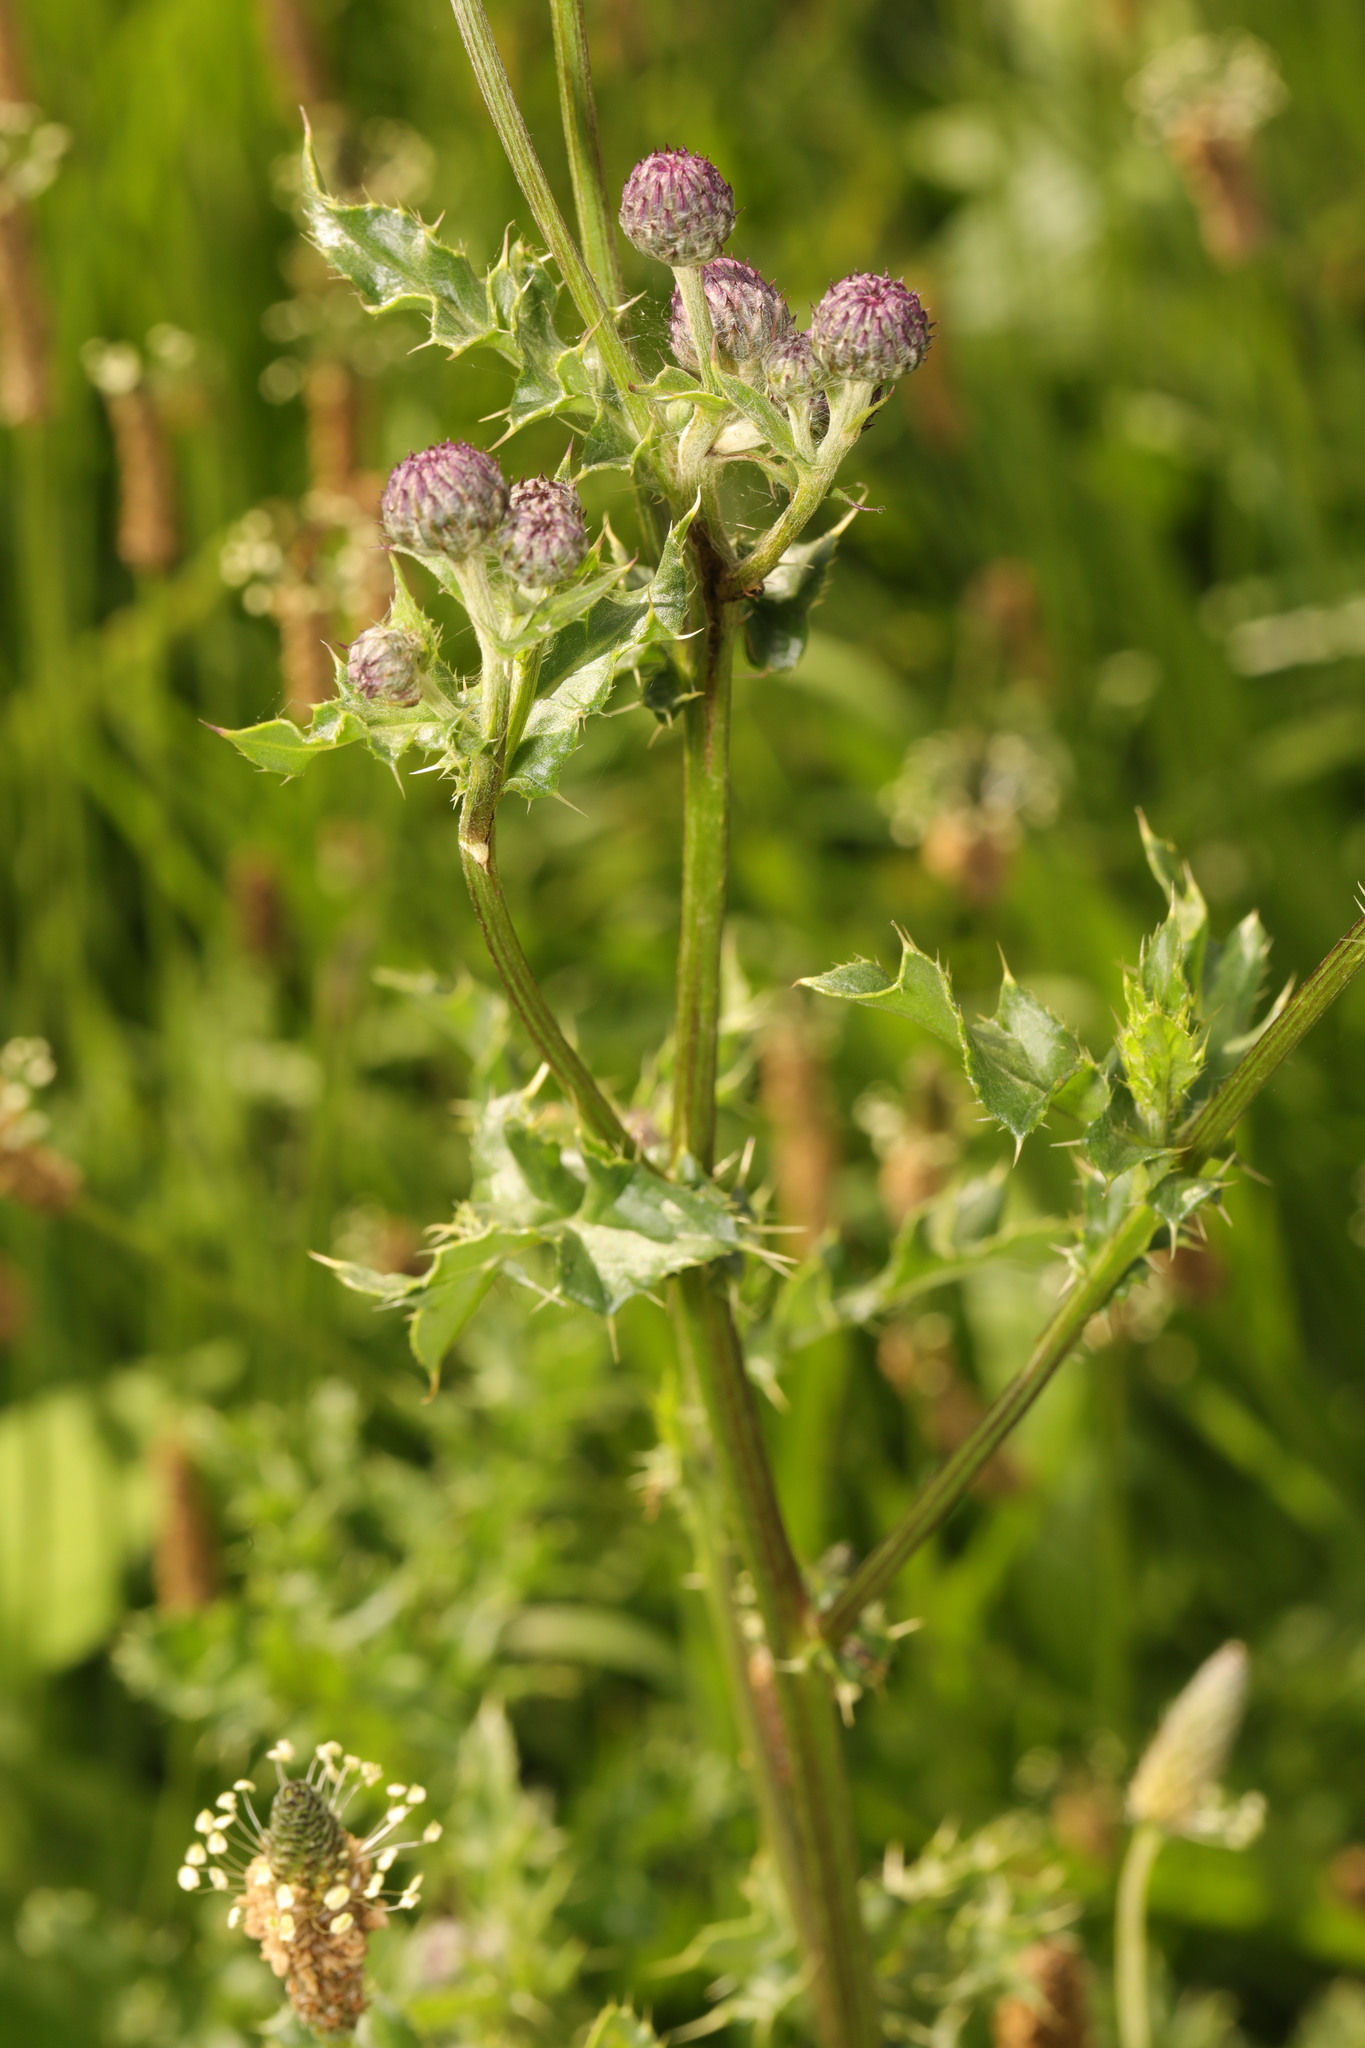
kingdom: Plantae
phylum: Tracheophyta
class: Magnoliopsida
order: Asterales
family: Asteraceae
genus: Cirsium
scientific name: Cirsium arvense
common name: Creeping thistle
